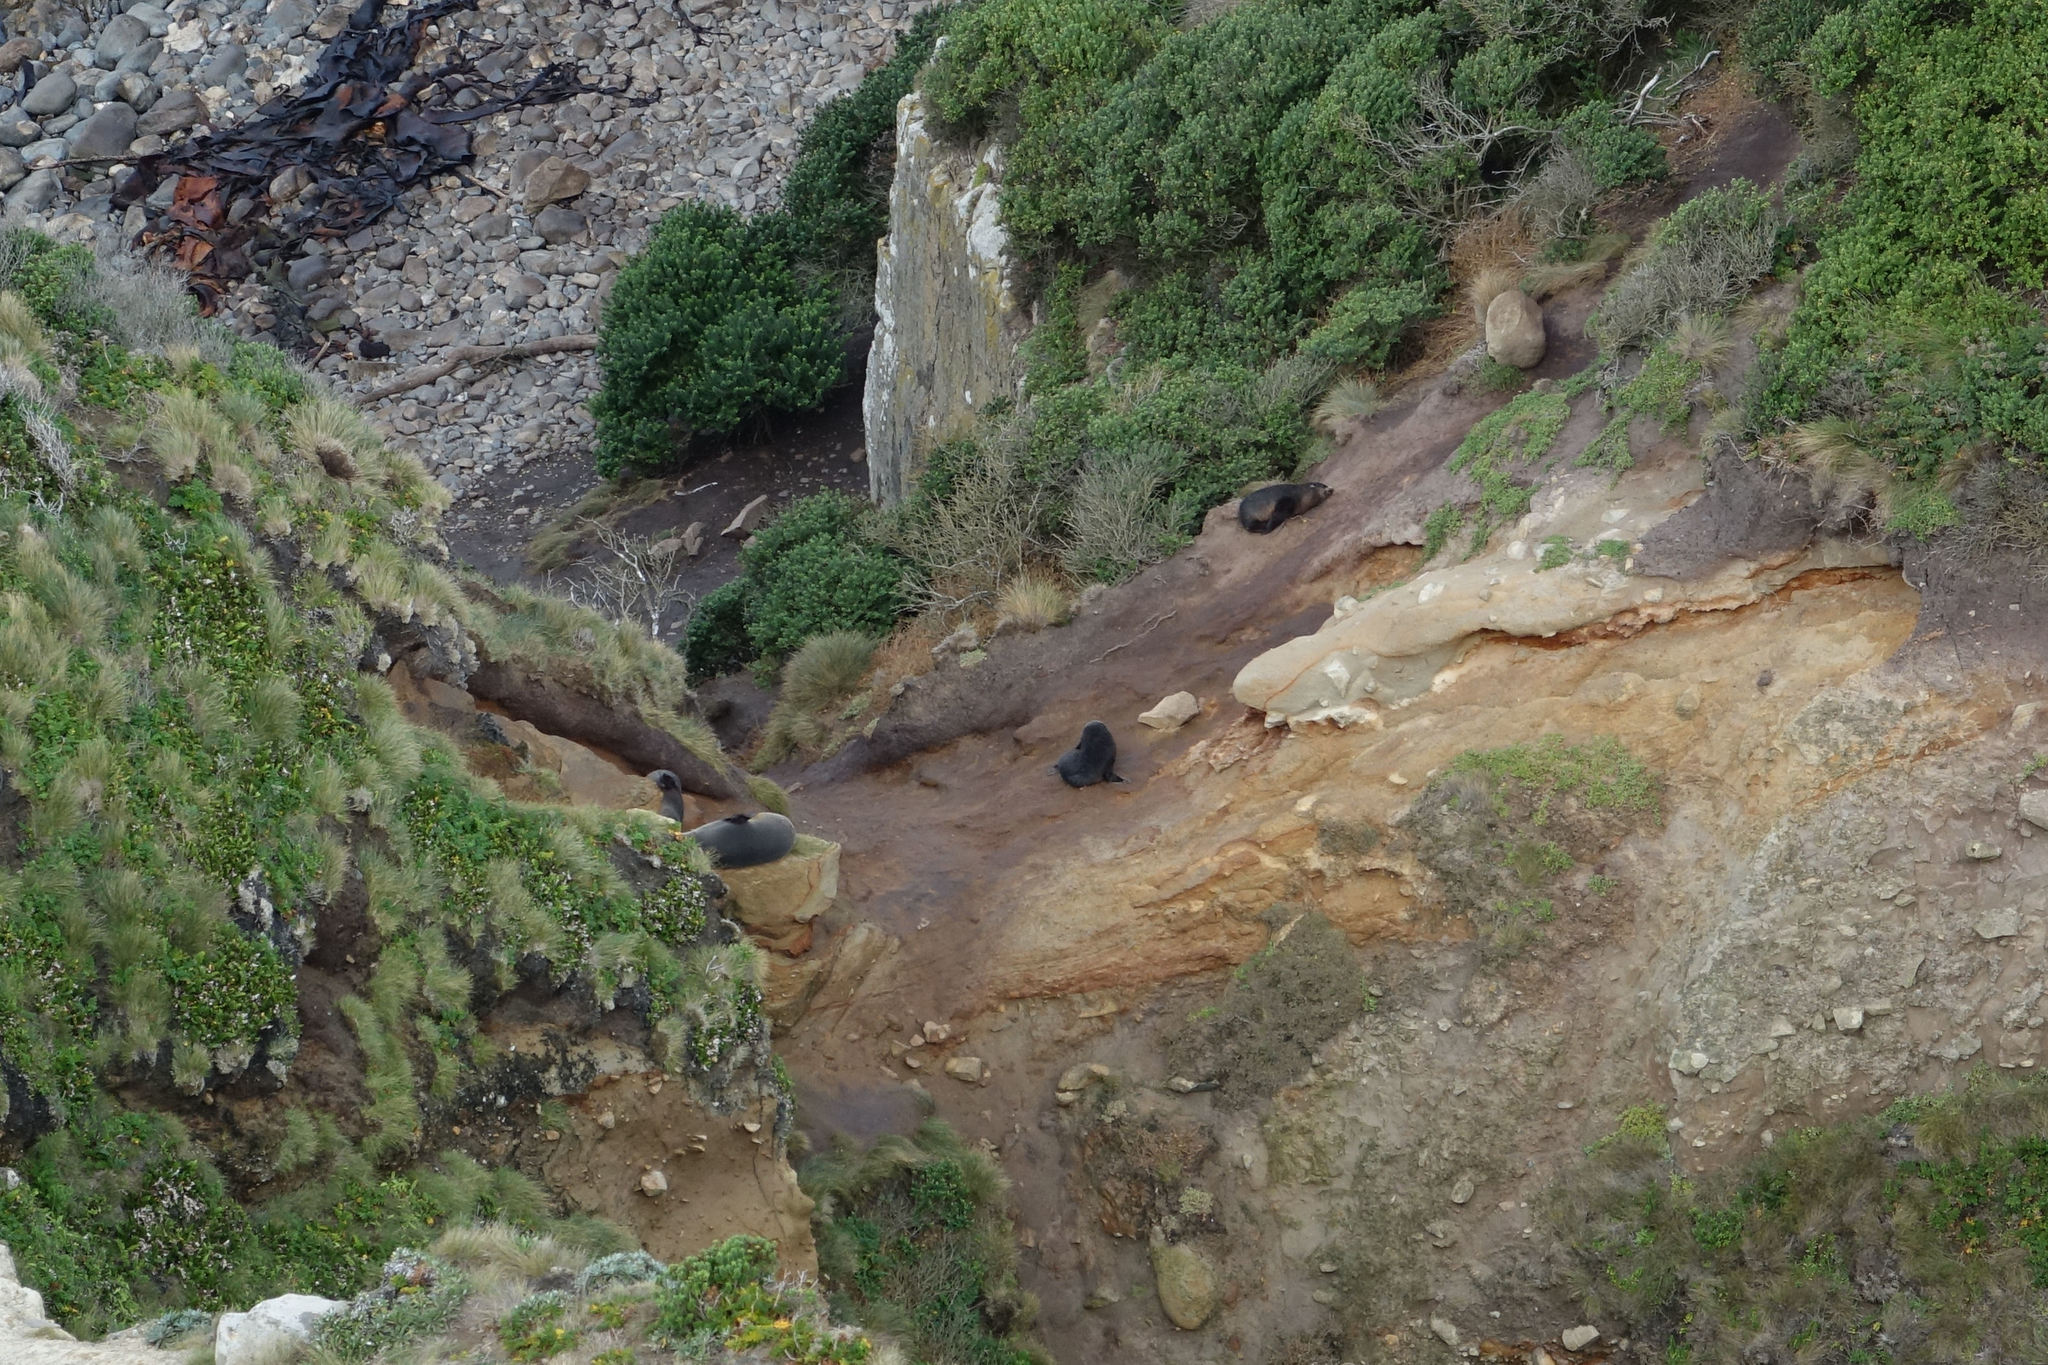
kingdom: Animalia
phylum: Chordata
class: Mammalia
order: Carnivora
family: Otariidae
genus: Arctocephalus
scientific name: Arctocephalus forsteri
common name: New zealand fur seal
